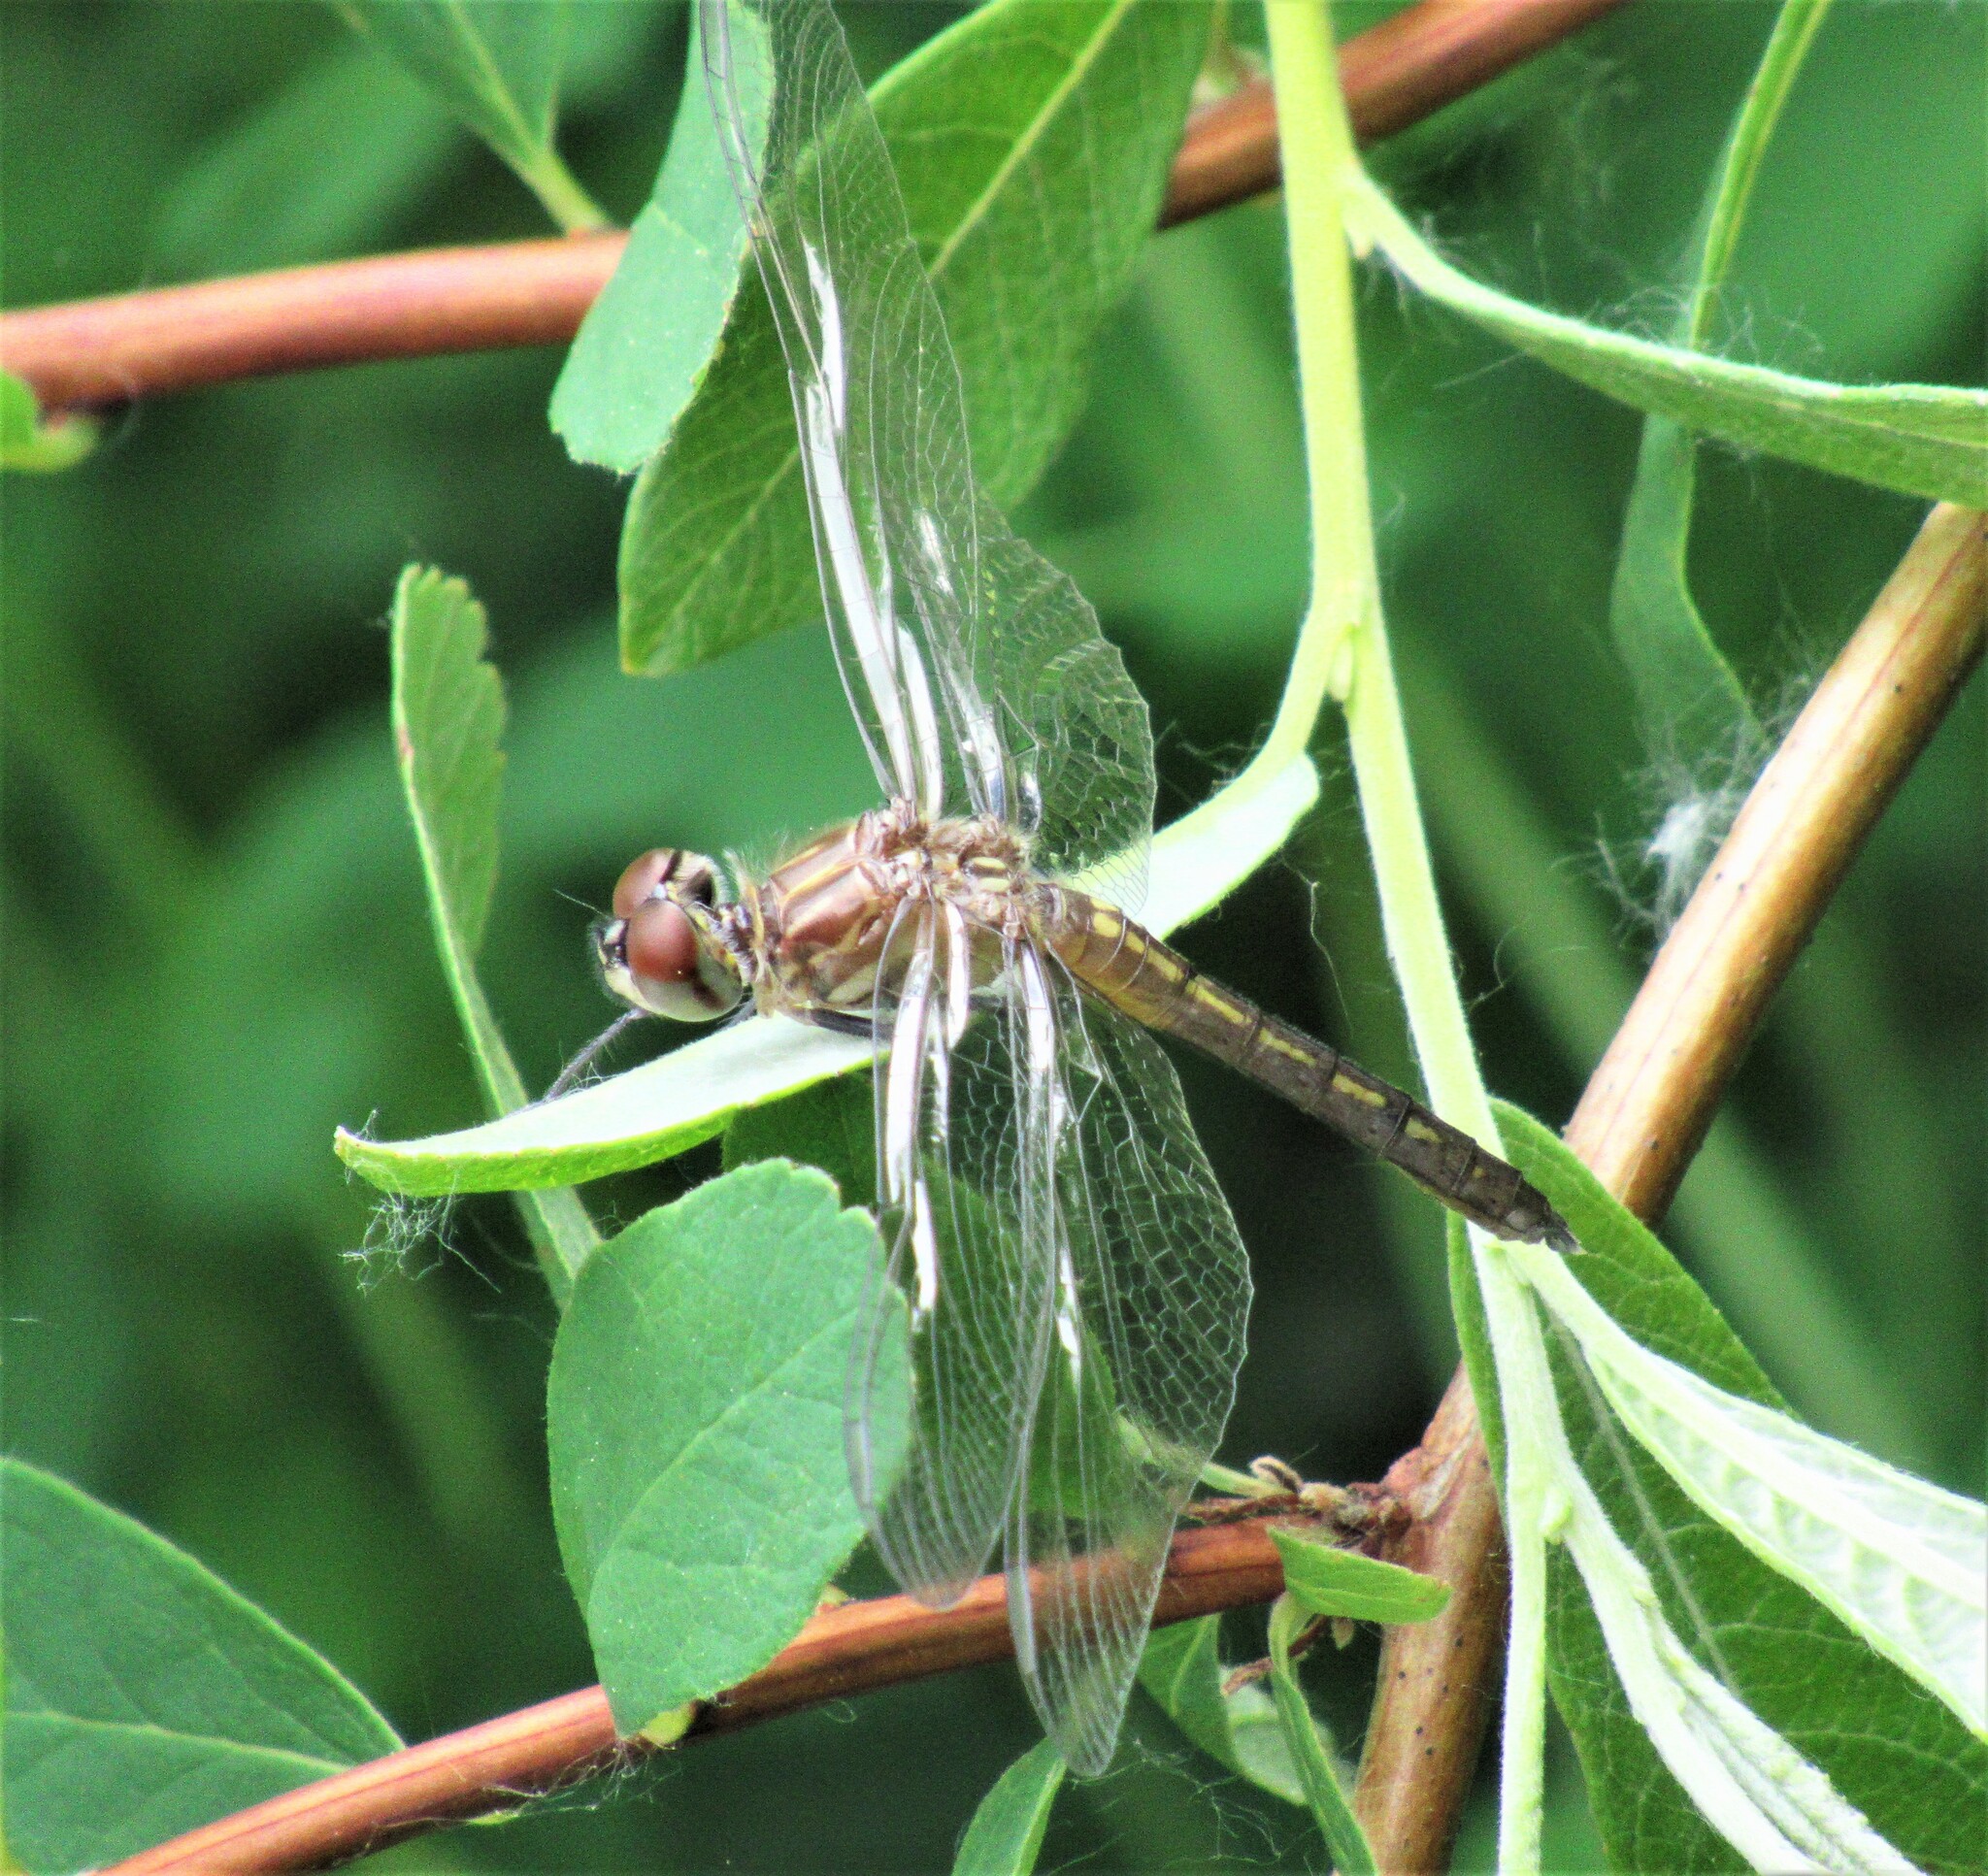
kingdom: Animalia
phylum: Arthropoda
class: Insecta
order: Odonata
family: Libellulidae
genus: Pachydiplax
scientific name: Pachydiplax longipennis
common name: Blue dasher
